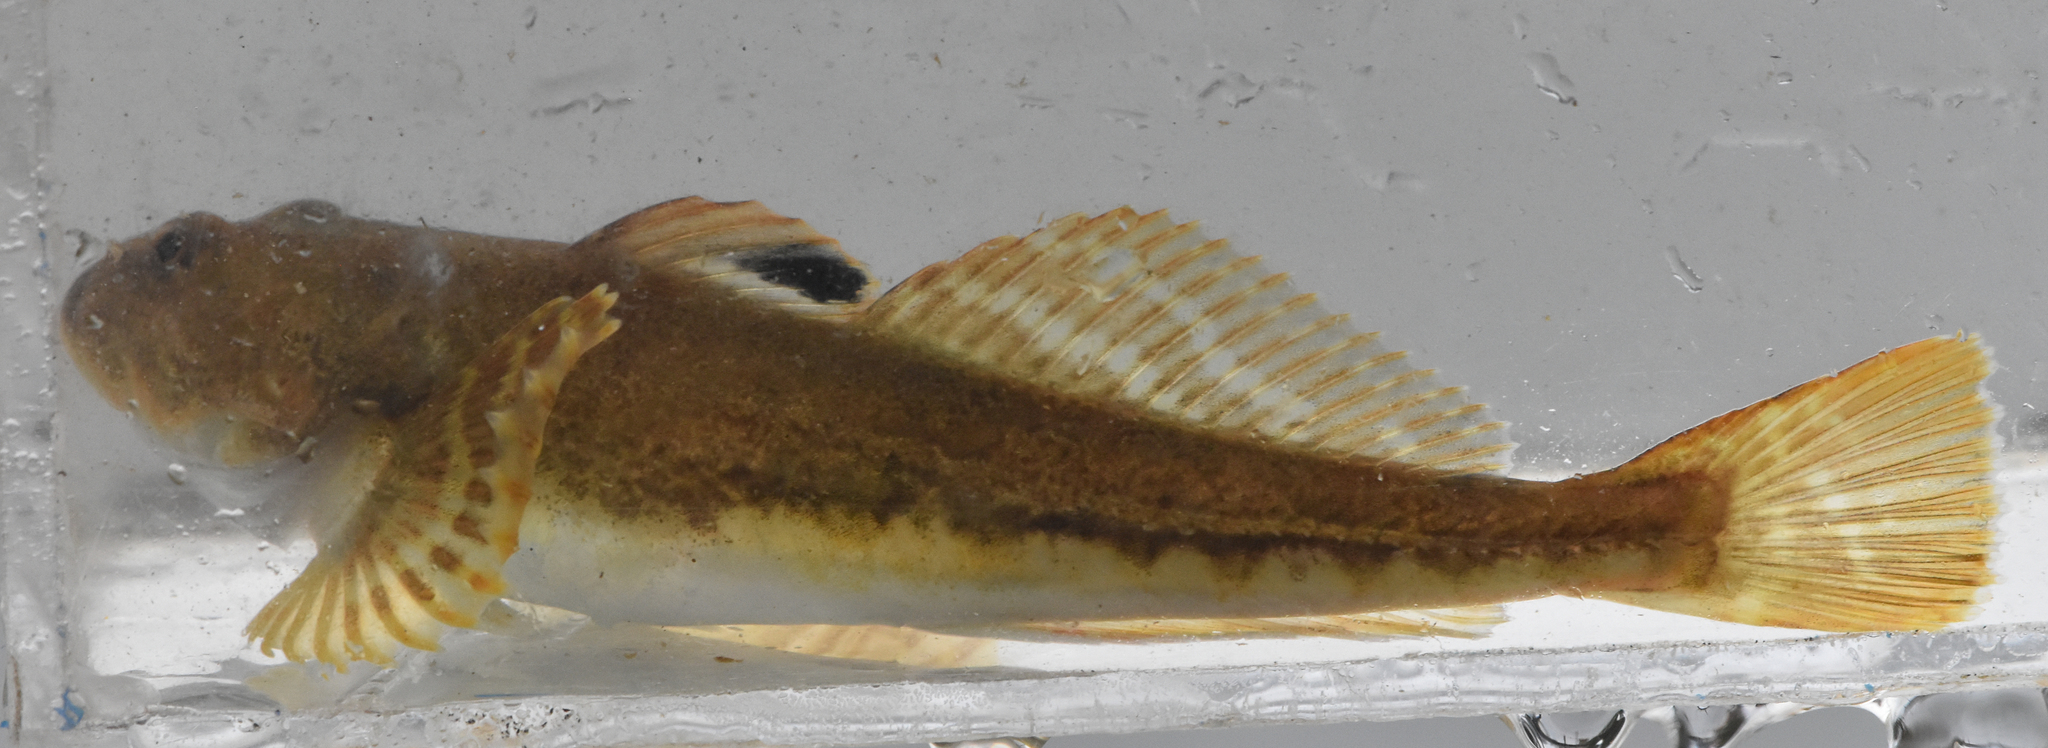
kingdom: Animalia
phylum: Chordata
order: Scorpaeniformes
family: Cottidae
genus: Leptocottus
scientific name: Leptocottus armatus
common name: Pacific staghorn sculpin
